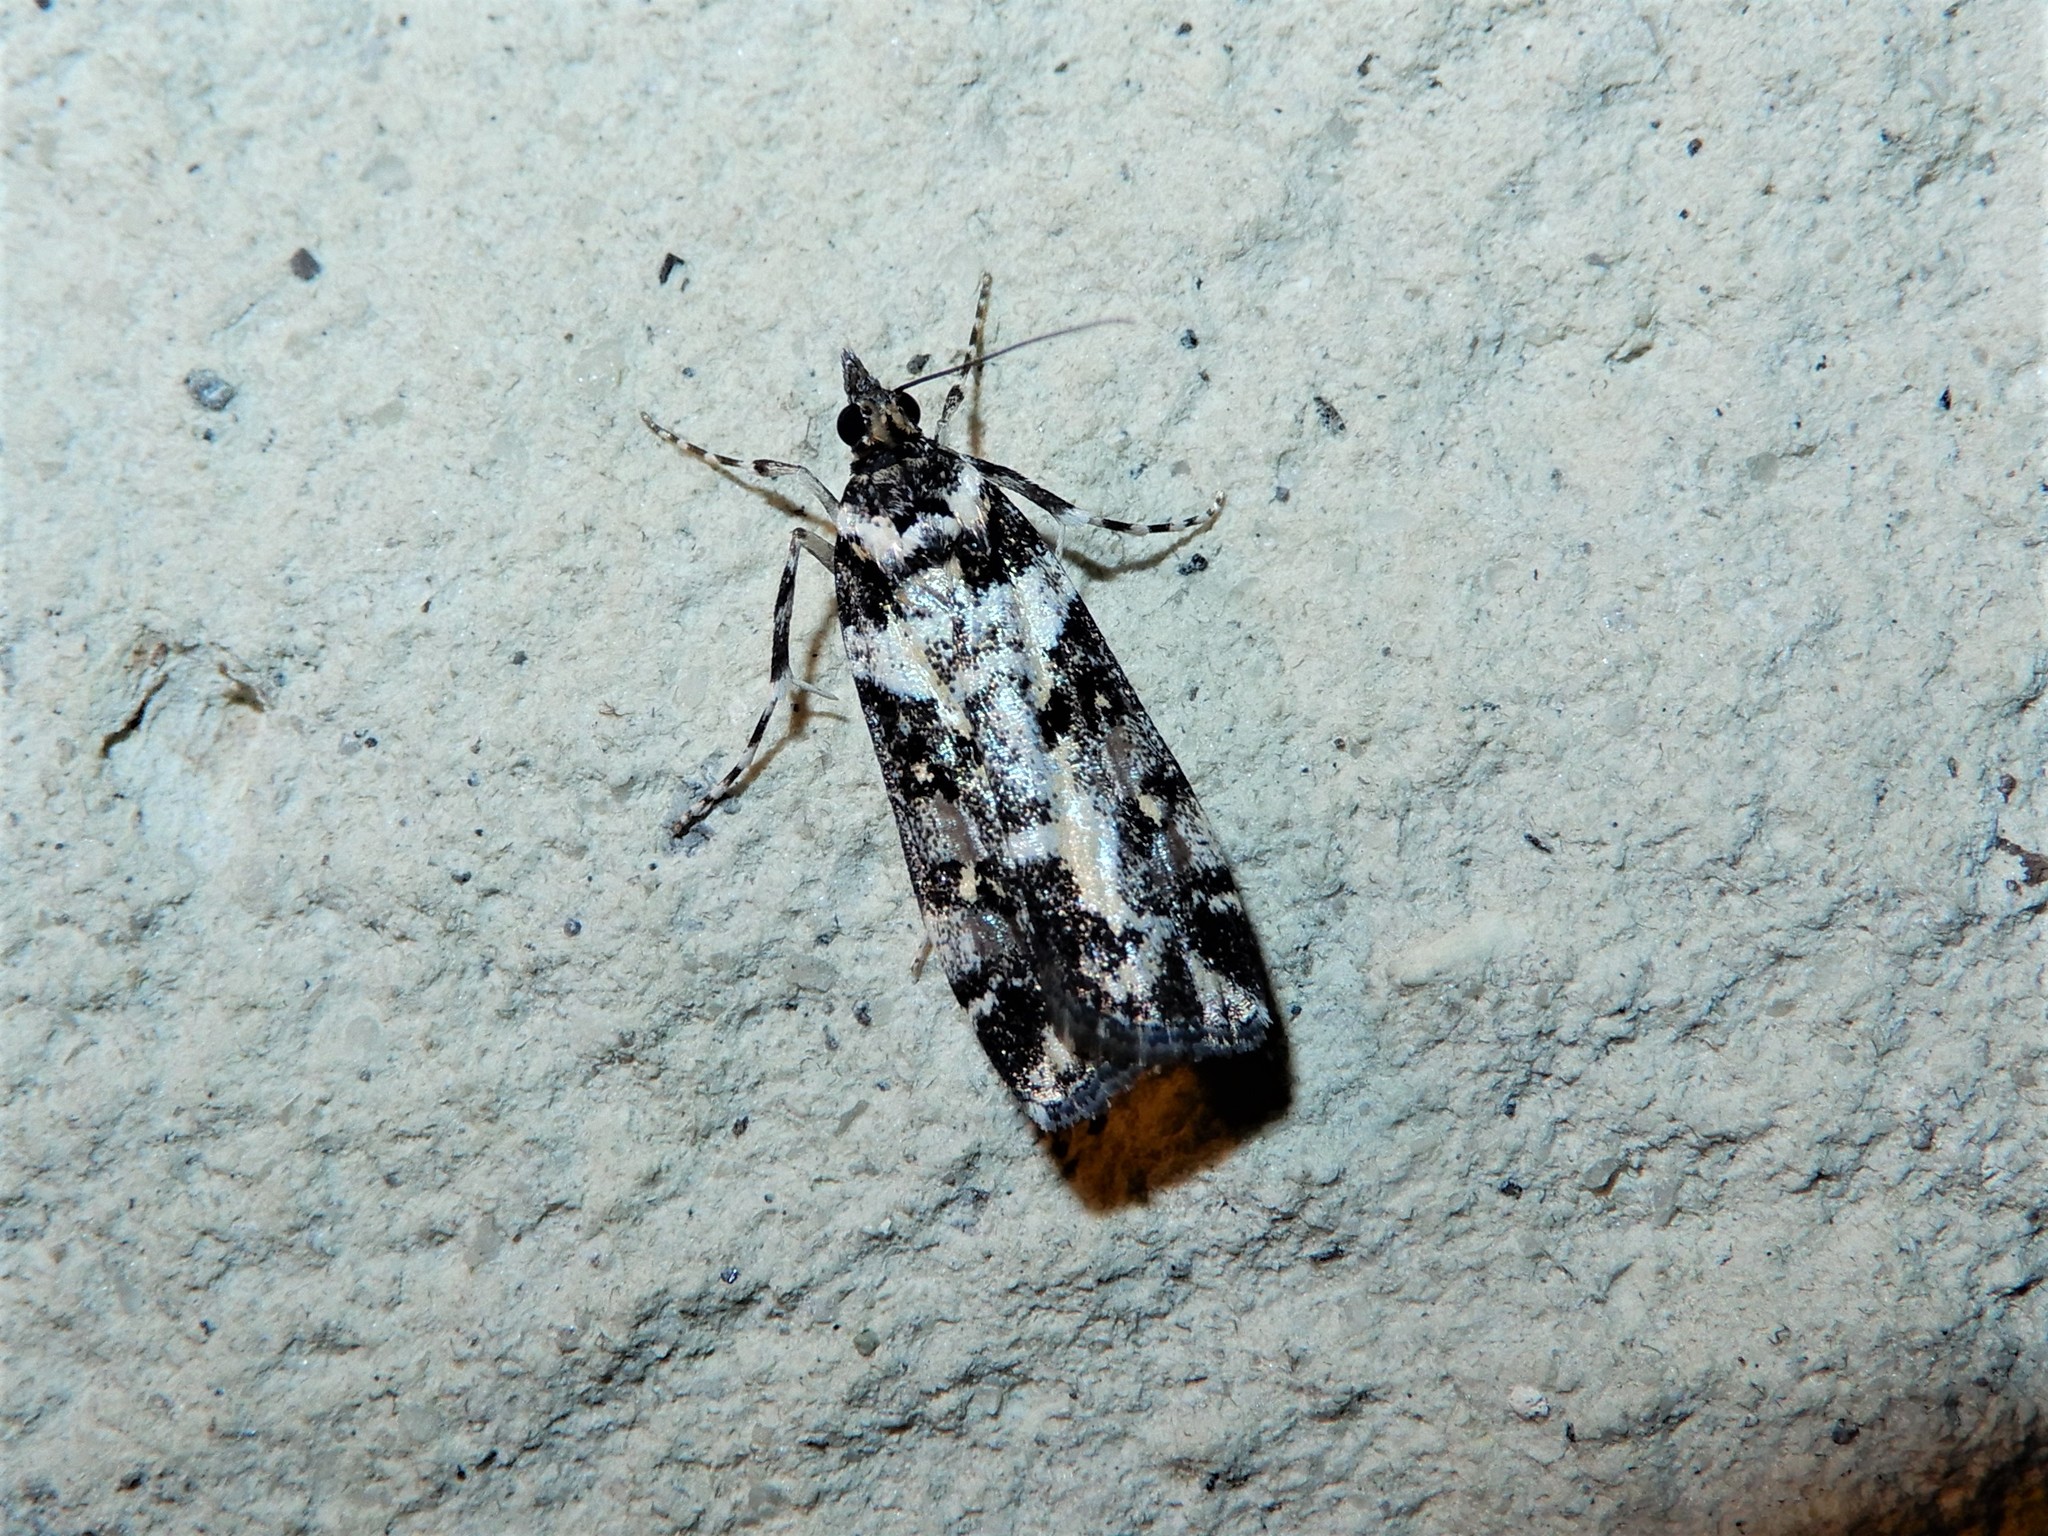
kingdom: Animalia
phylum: Arthropoda
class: Insecta
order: Lepidoptera
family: Crambidae
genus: Eudonia
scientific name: Eudonia diphtheralis
